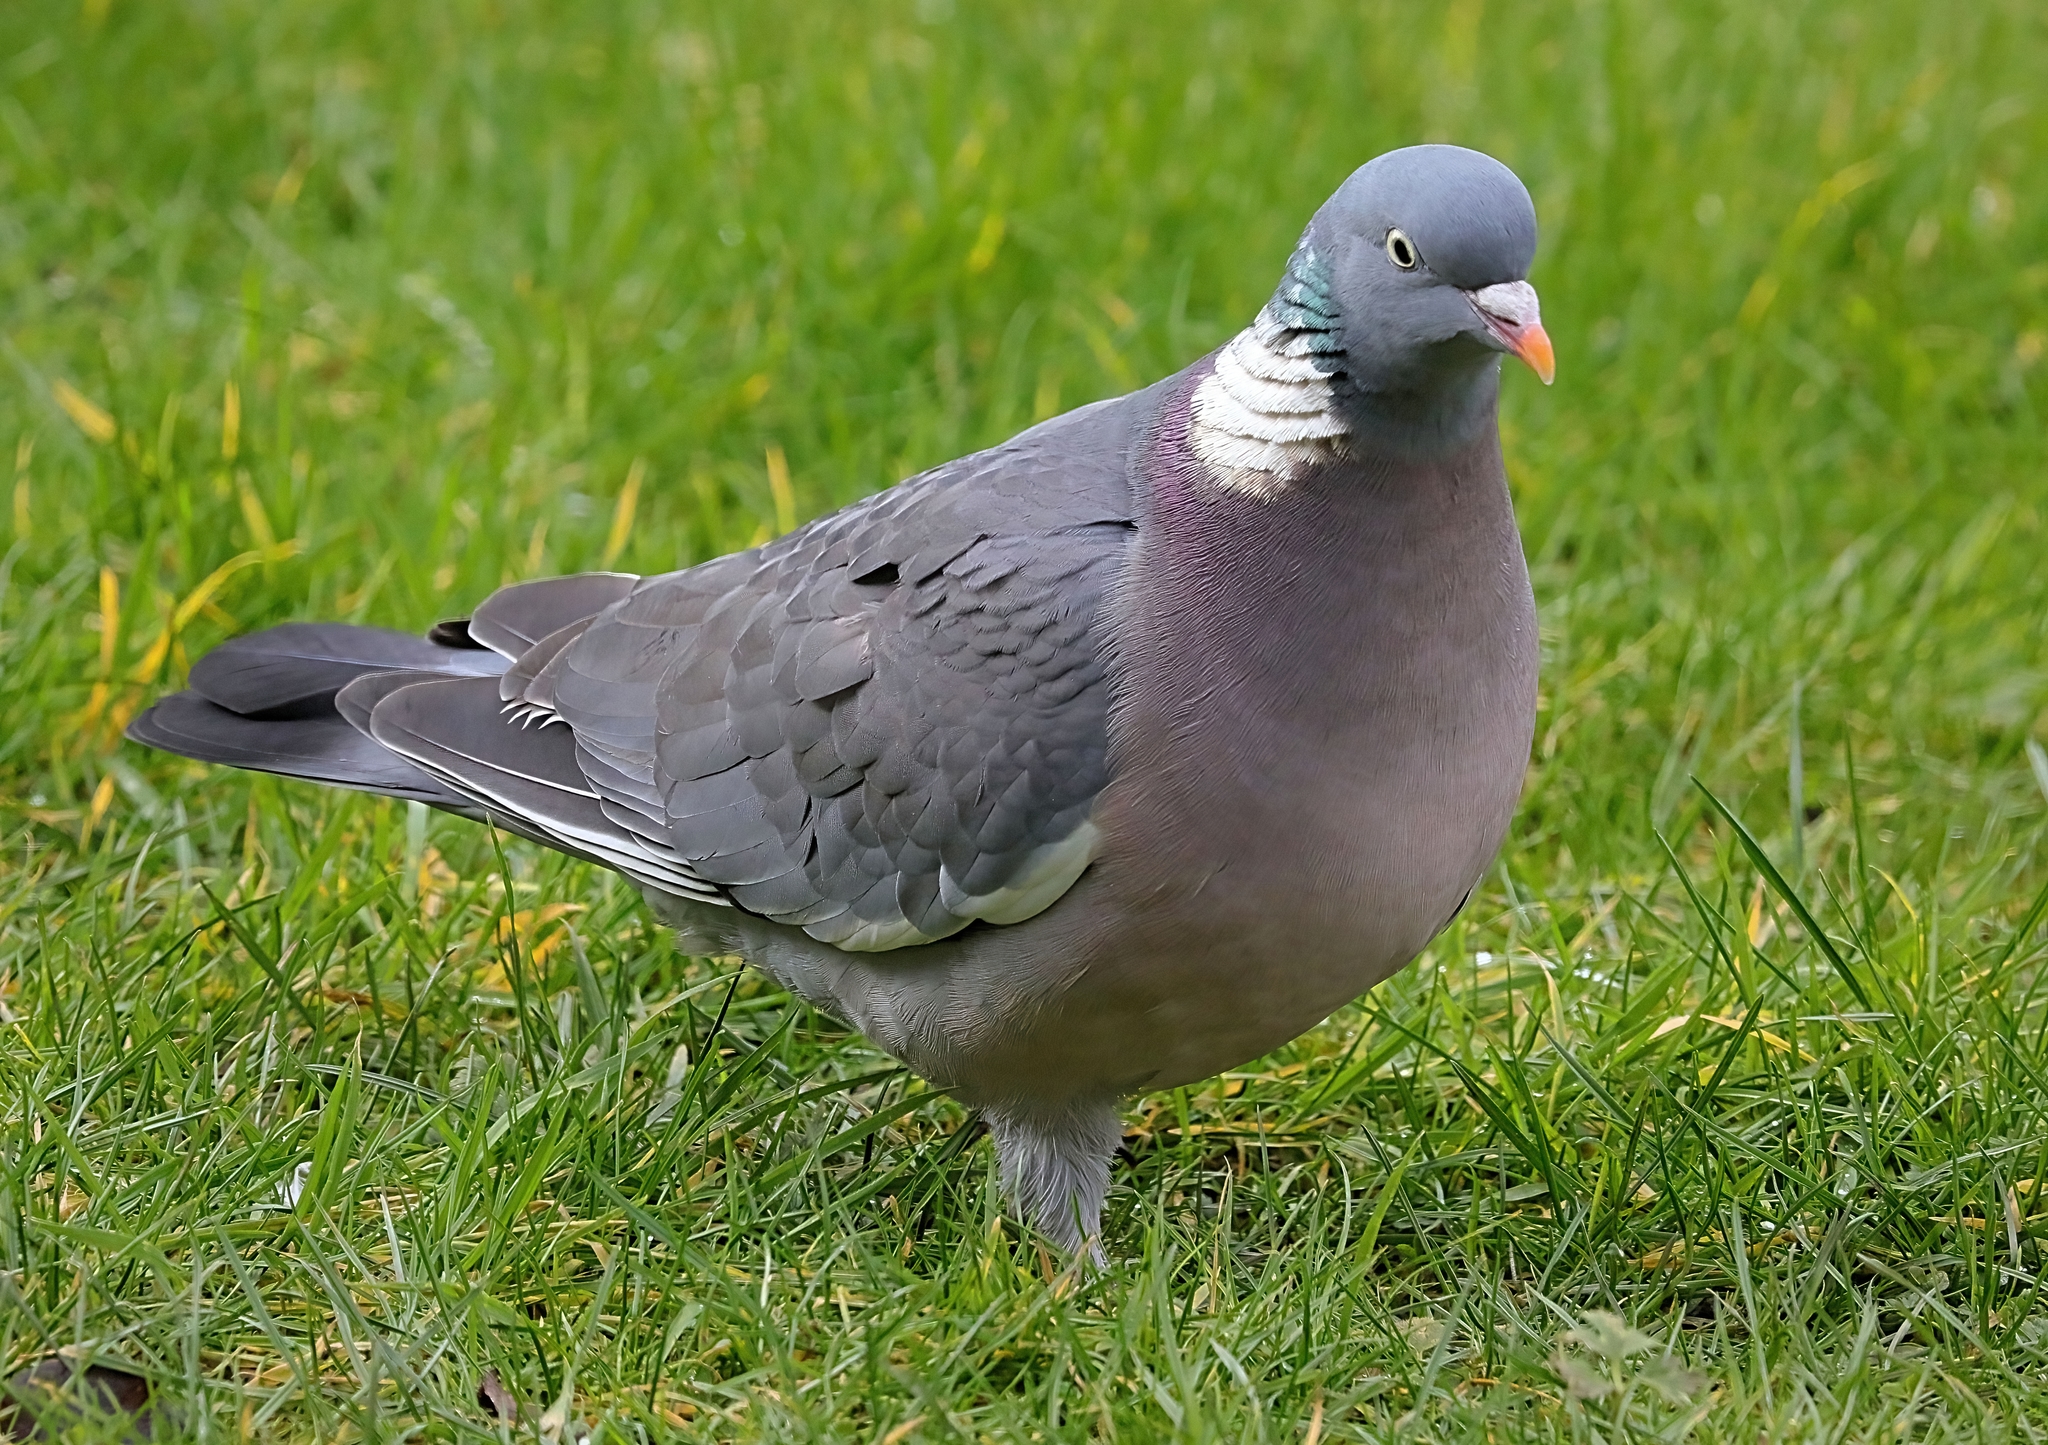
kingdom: Animalia
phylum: Chordata
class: Aves
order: Columbiformes
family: Columbidae
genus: Columba
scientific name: Columba palumbus
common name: Common wood pigeon
